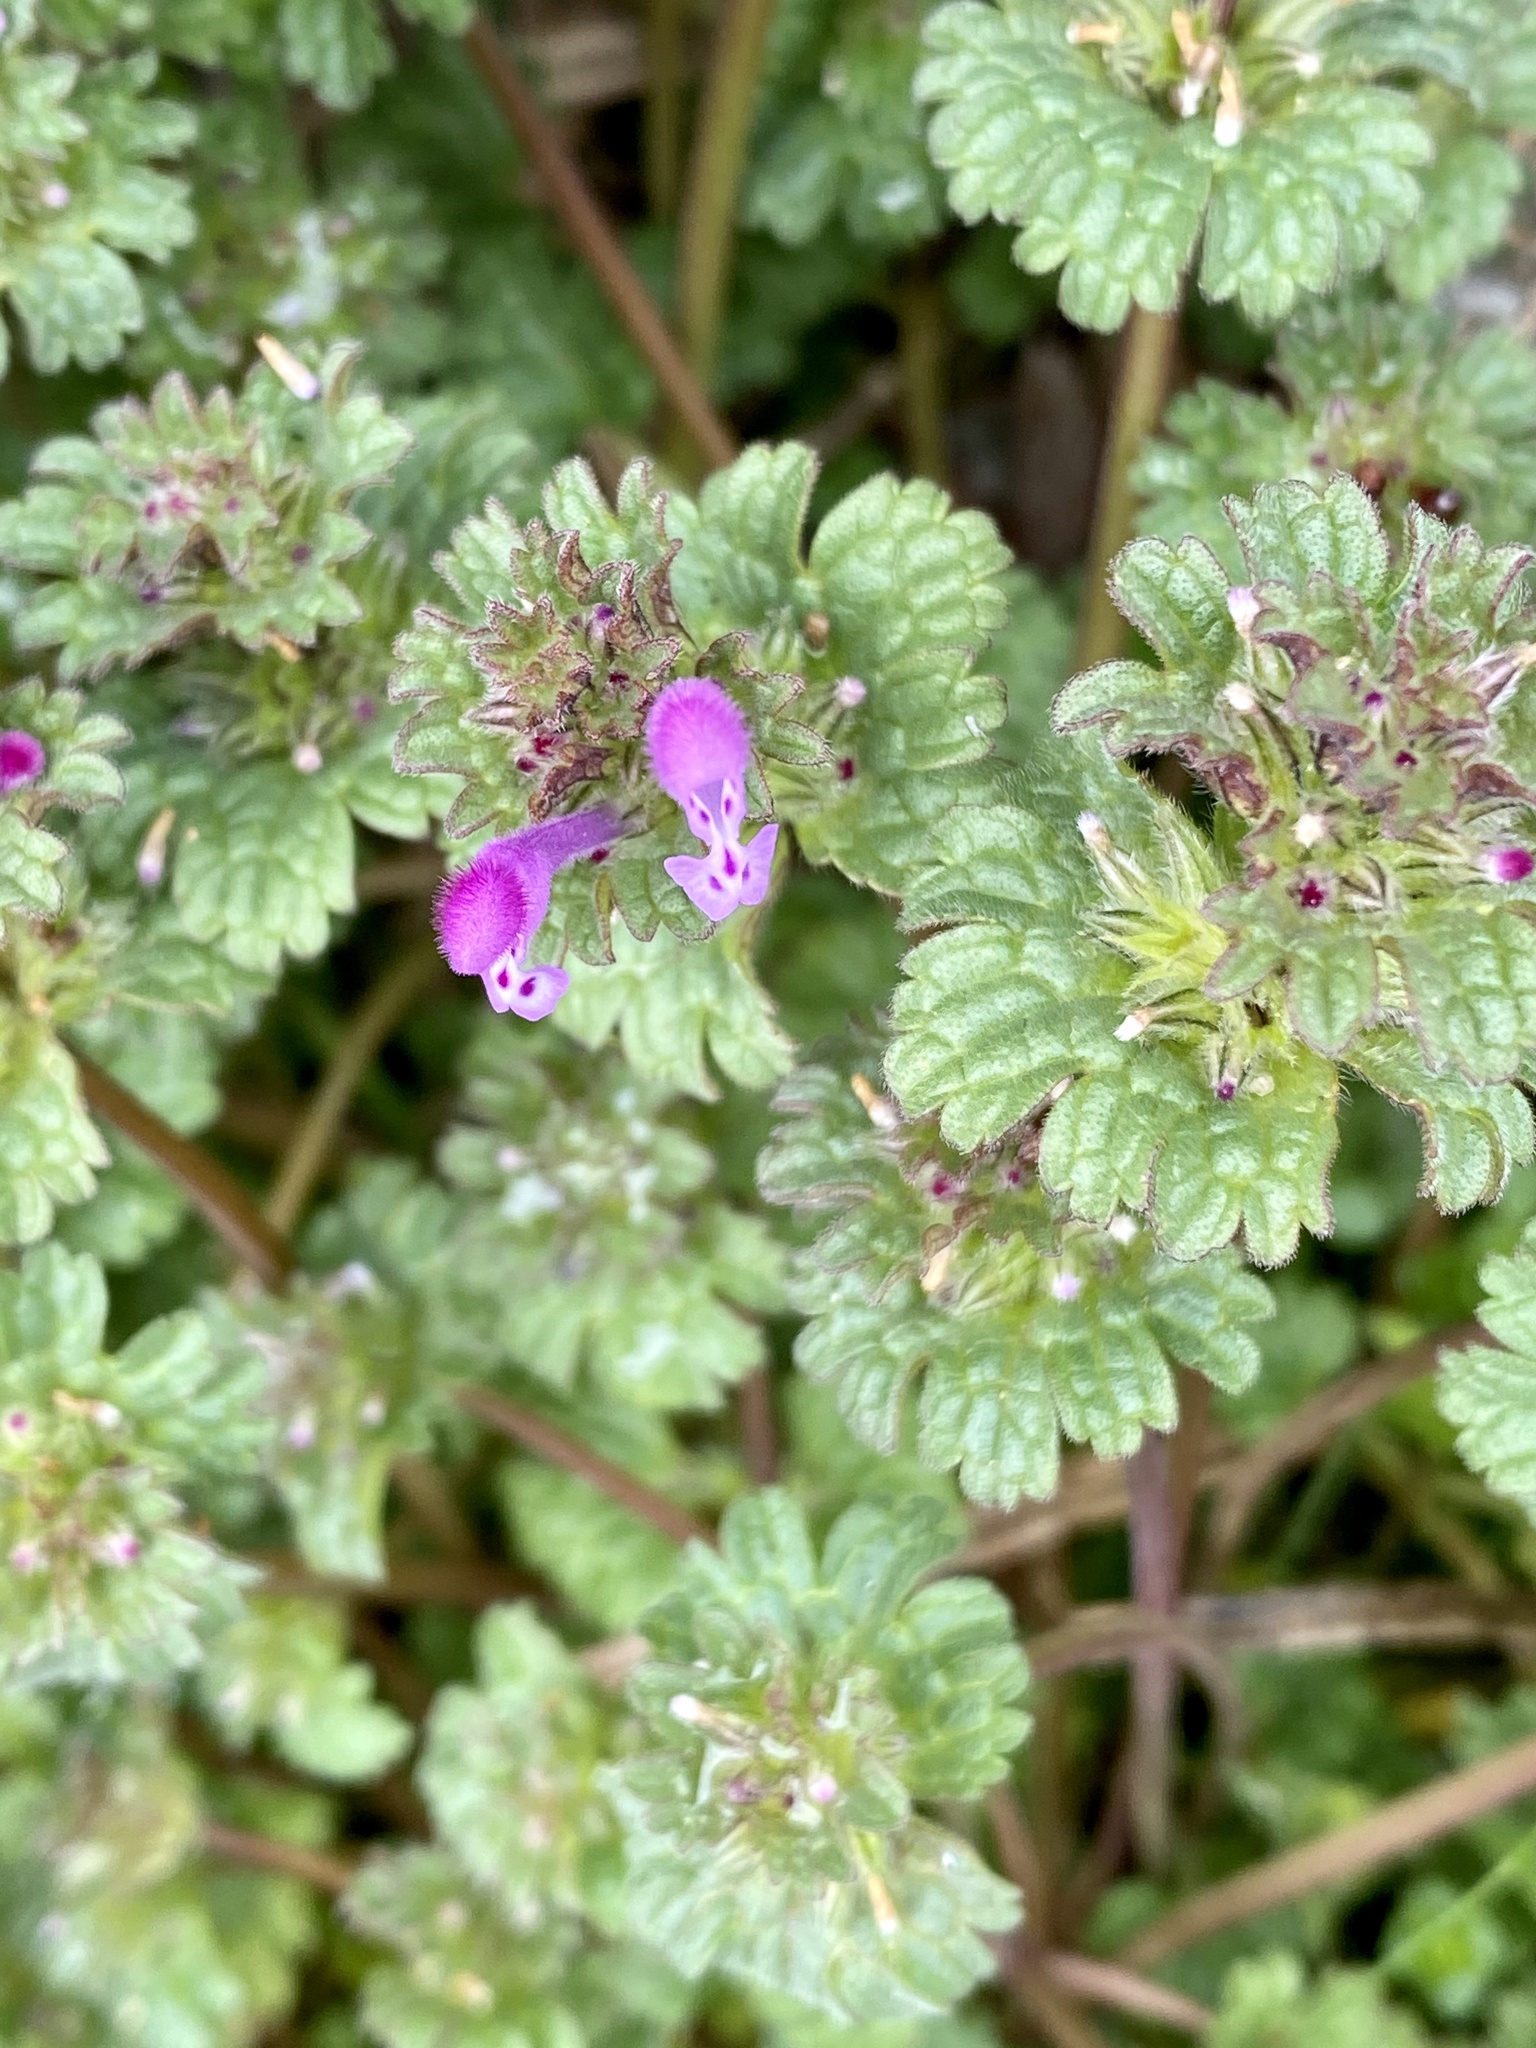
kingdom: Plantae
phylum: Tracheophyta
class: Magnoliopsida
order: Lamiales
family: Lamiaceae
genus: Lamium
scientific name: Lamium amplexicaule
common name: Henbit dead-nettle
